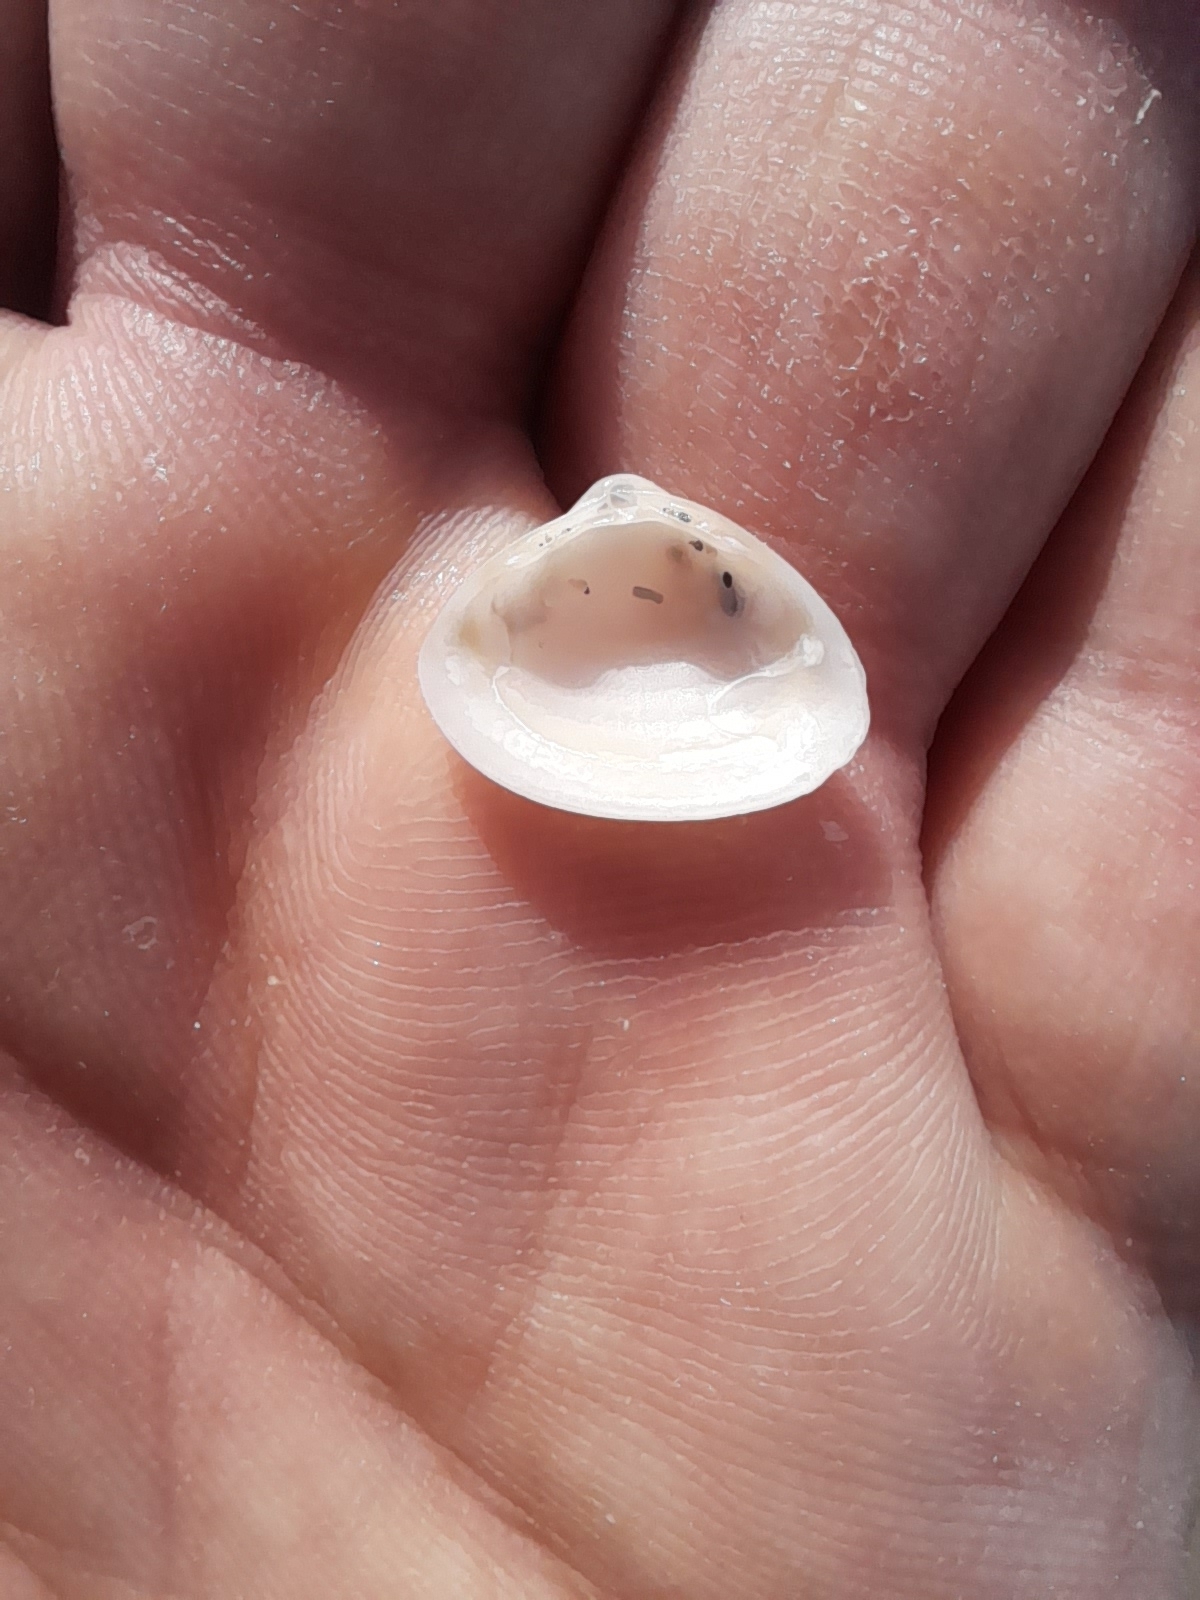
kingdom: Animalia
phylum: Mollusca
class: Bivalvia
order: Venerida
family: Mactridae
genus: Spisula
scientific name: Spisula subtruncata
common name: Cut trough shell
